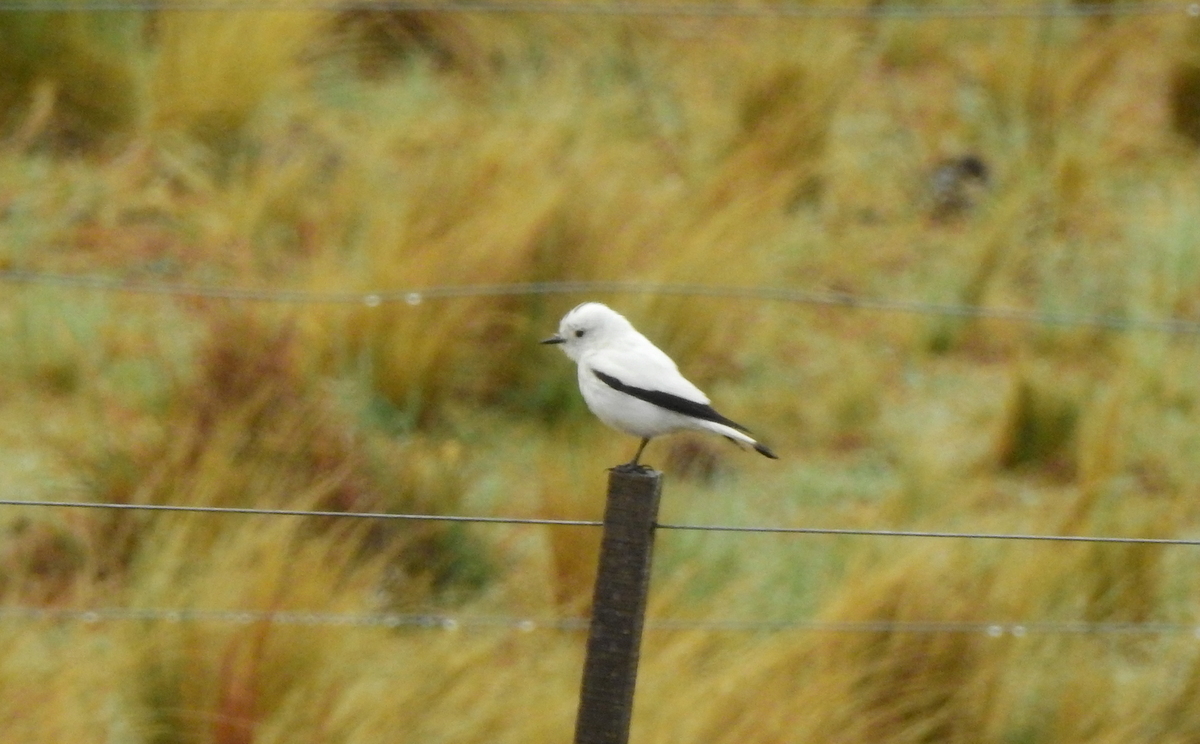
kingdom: Animalia
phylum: Chordata
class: Aves
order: Passeriformes
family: Tyrannidae
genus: Xolmis
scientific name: Xolmis irupero
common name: White monjita
